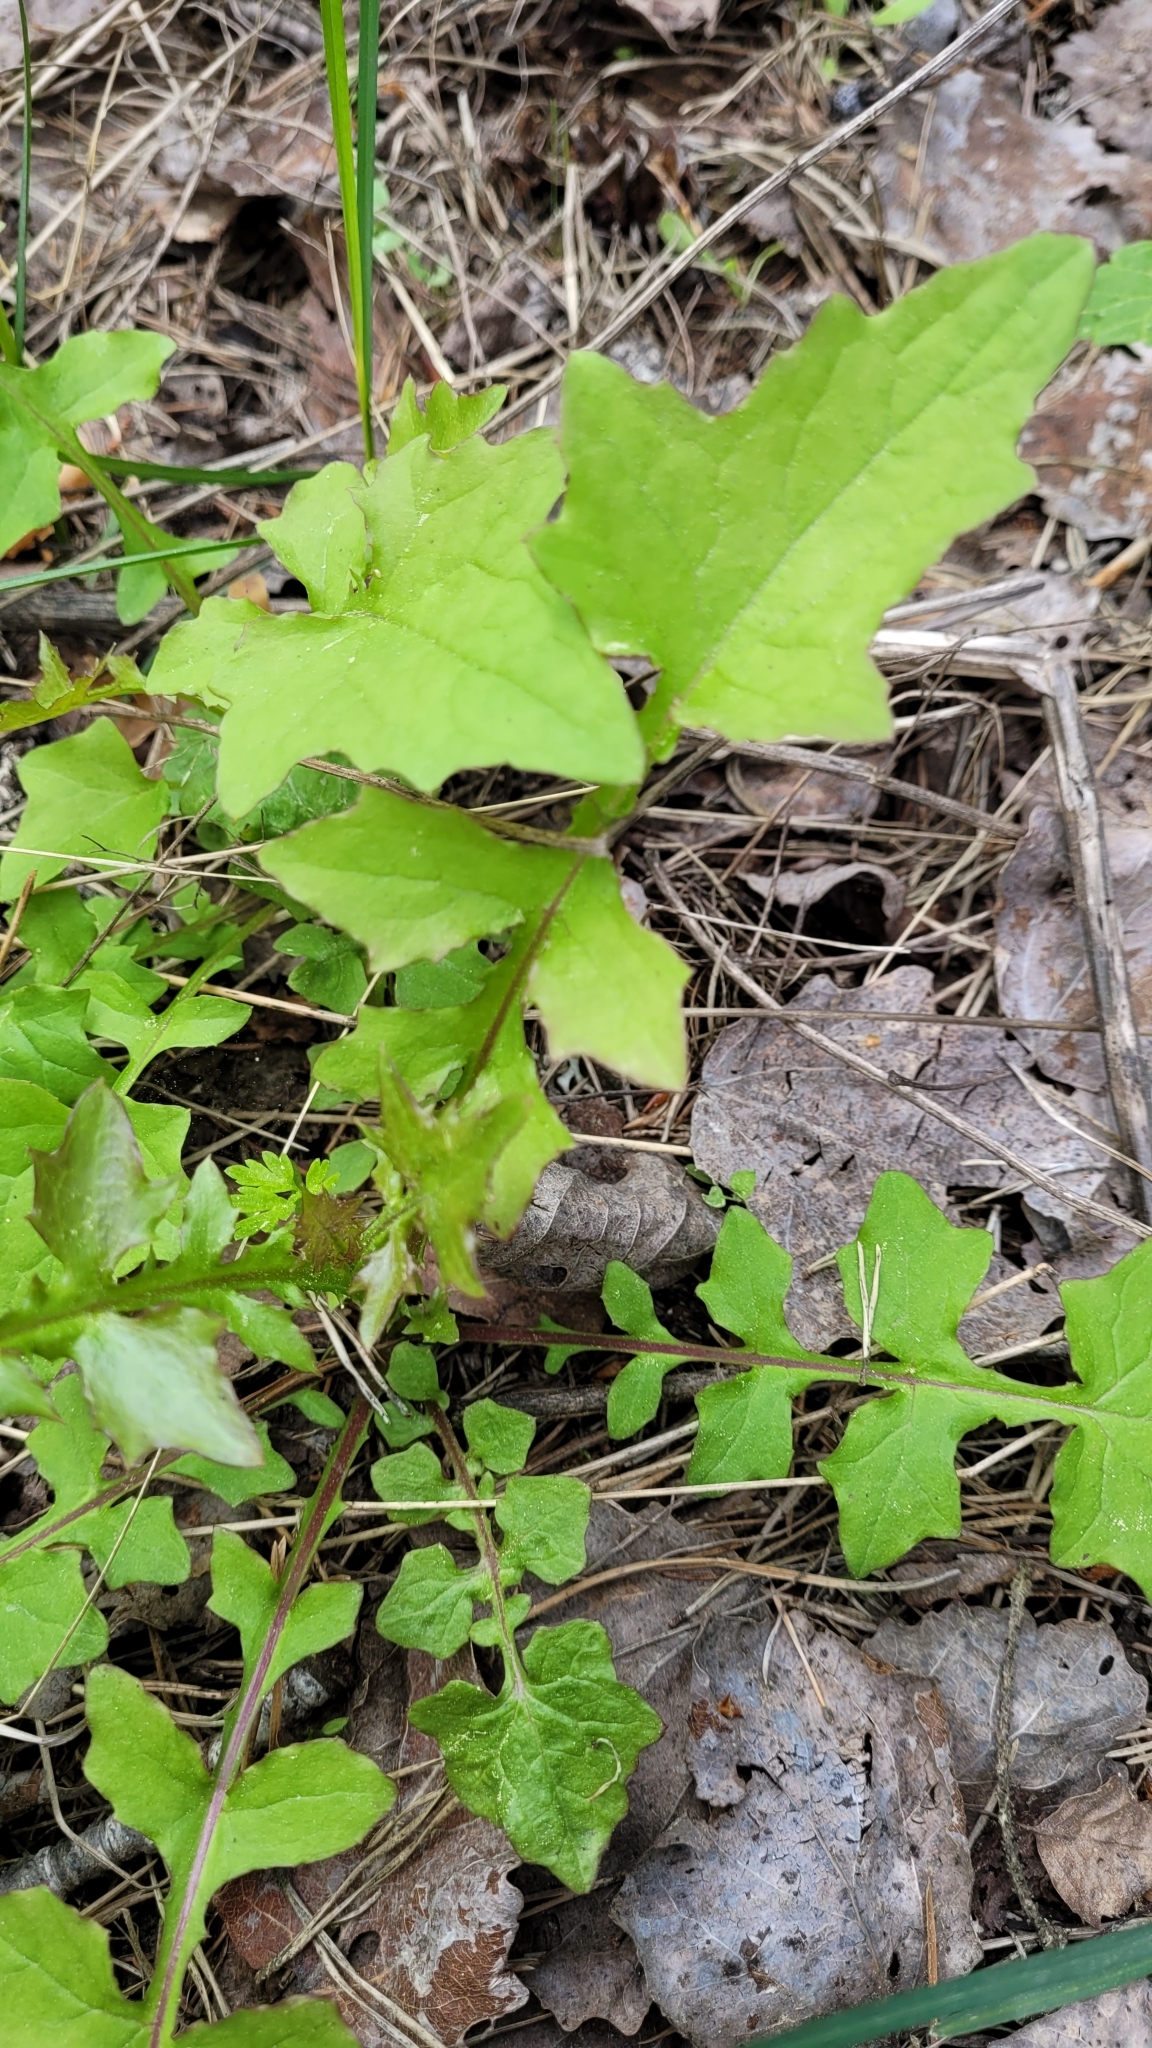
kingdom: Plantae
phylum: Tracheophyta
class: Magnoliopsida
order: Asterales
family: Asteraceae
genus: Mycelis
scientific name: Mycelis muralis
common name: Wall lettuce
